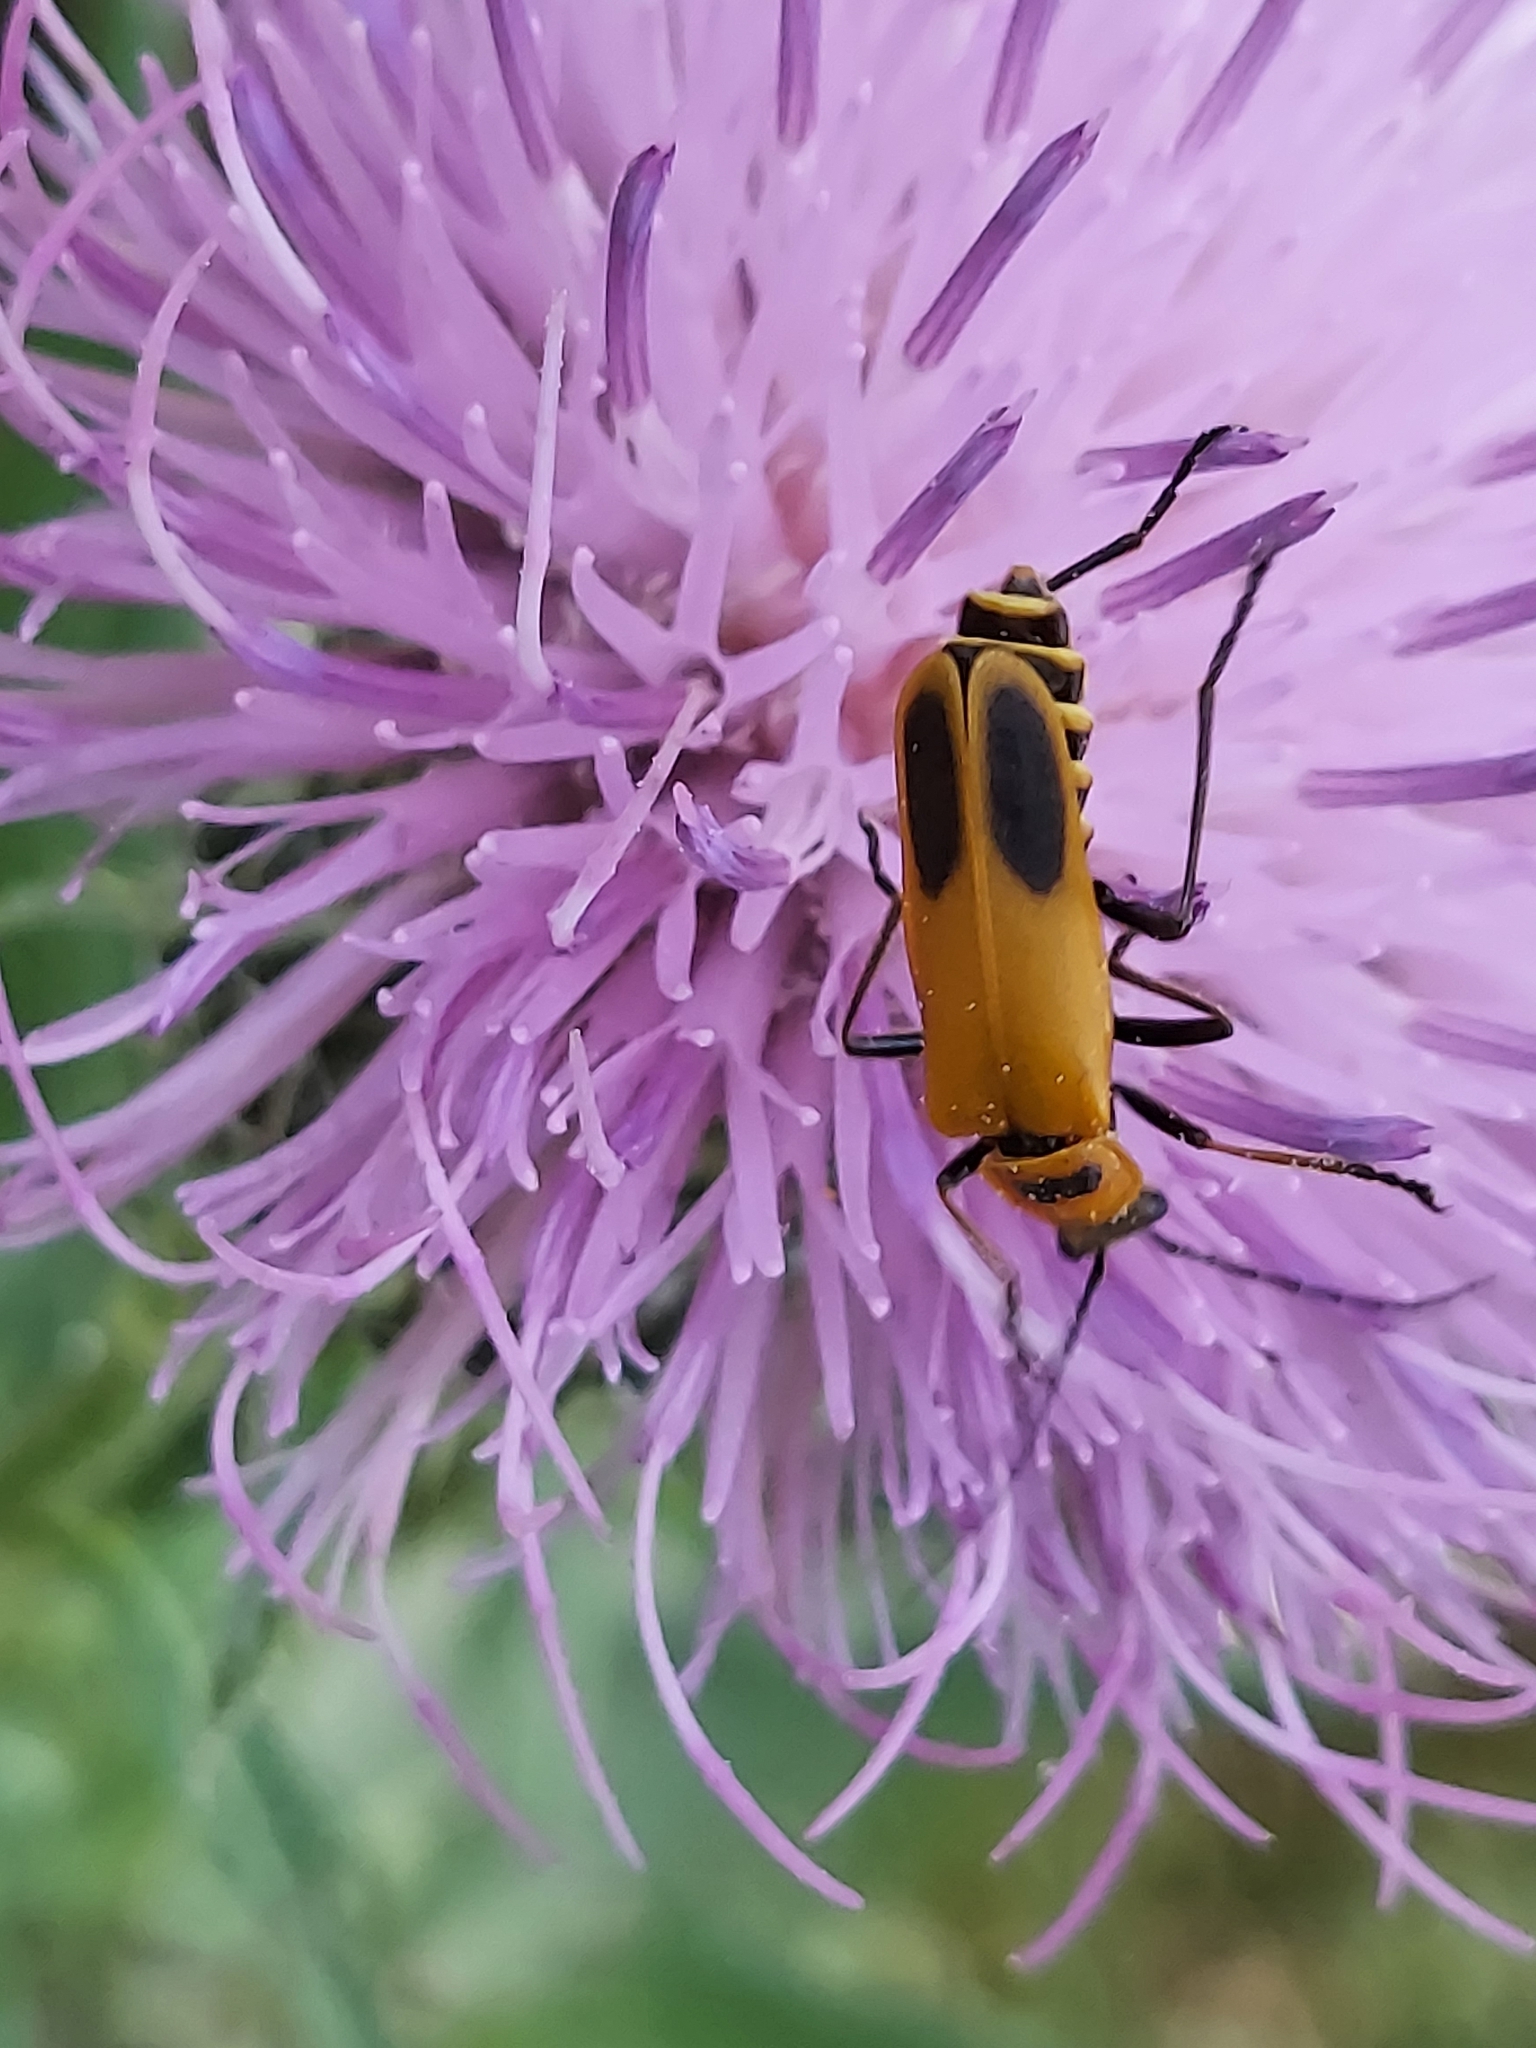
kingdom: Animalia
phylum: Arthropoda
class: Insecta
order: Coleoptera
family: Cantharidae
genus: Chauliognathus
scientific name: Chauliognathus pensylvanicus
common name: Goldenrod soldier beetle
